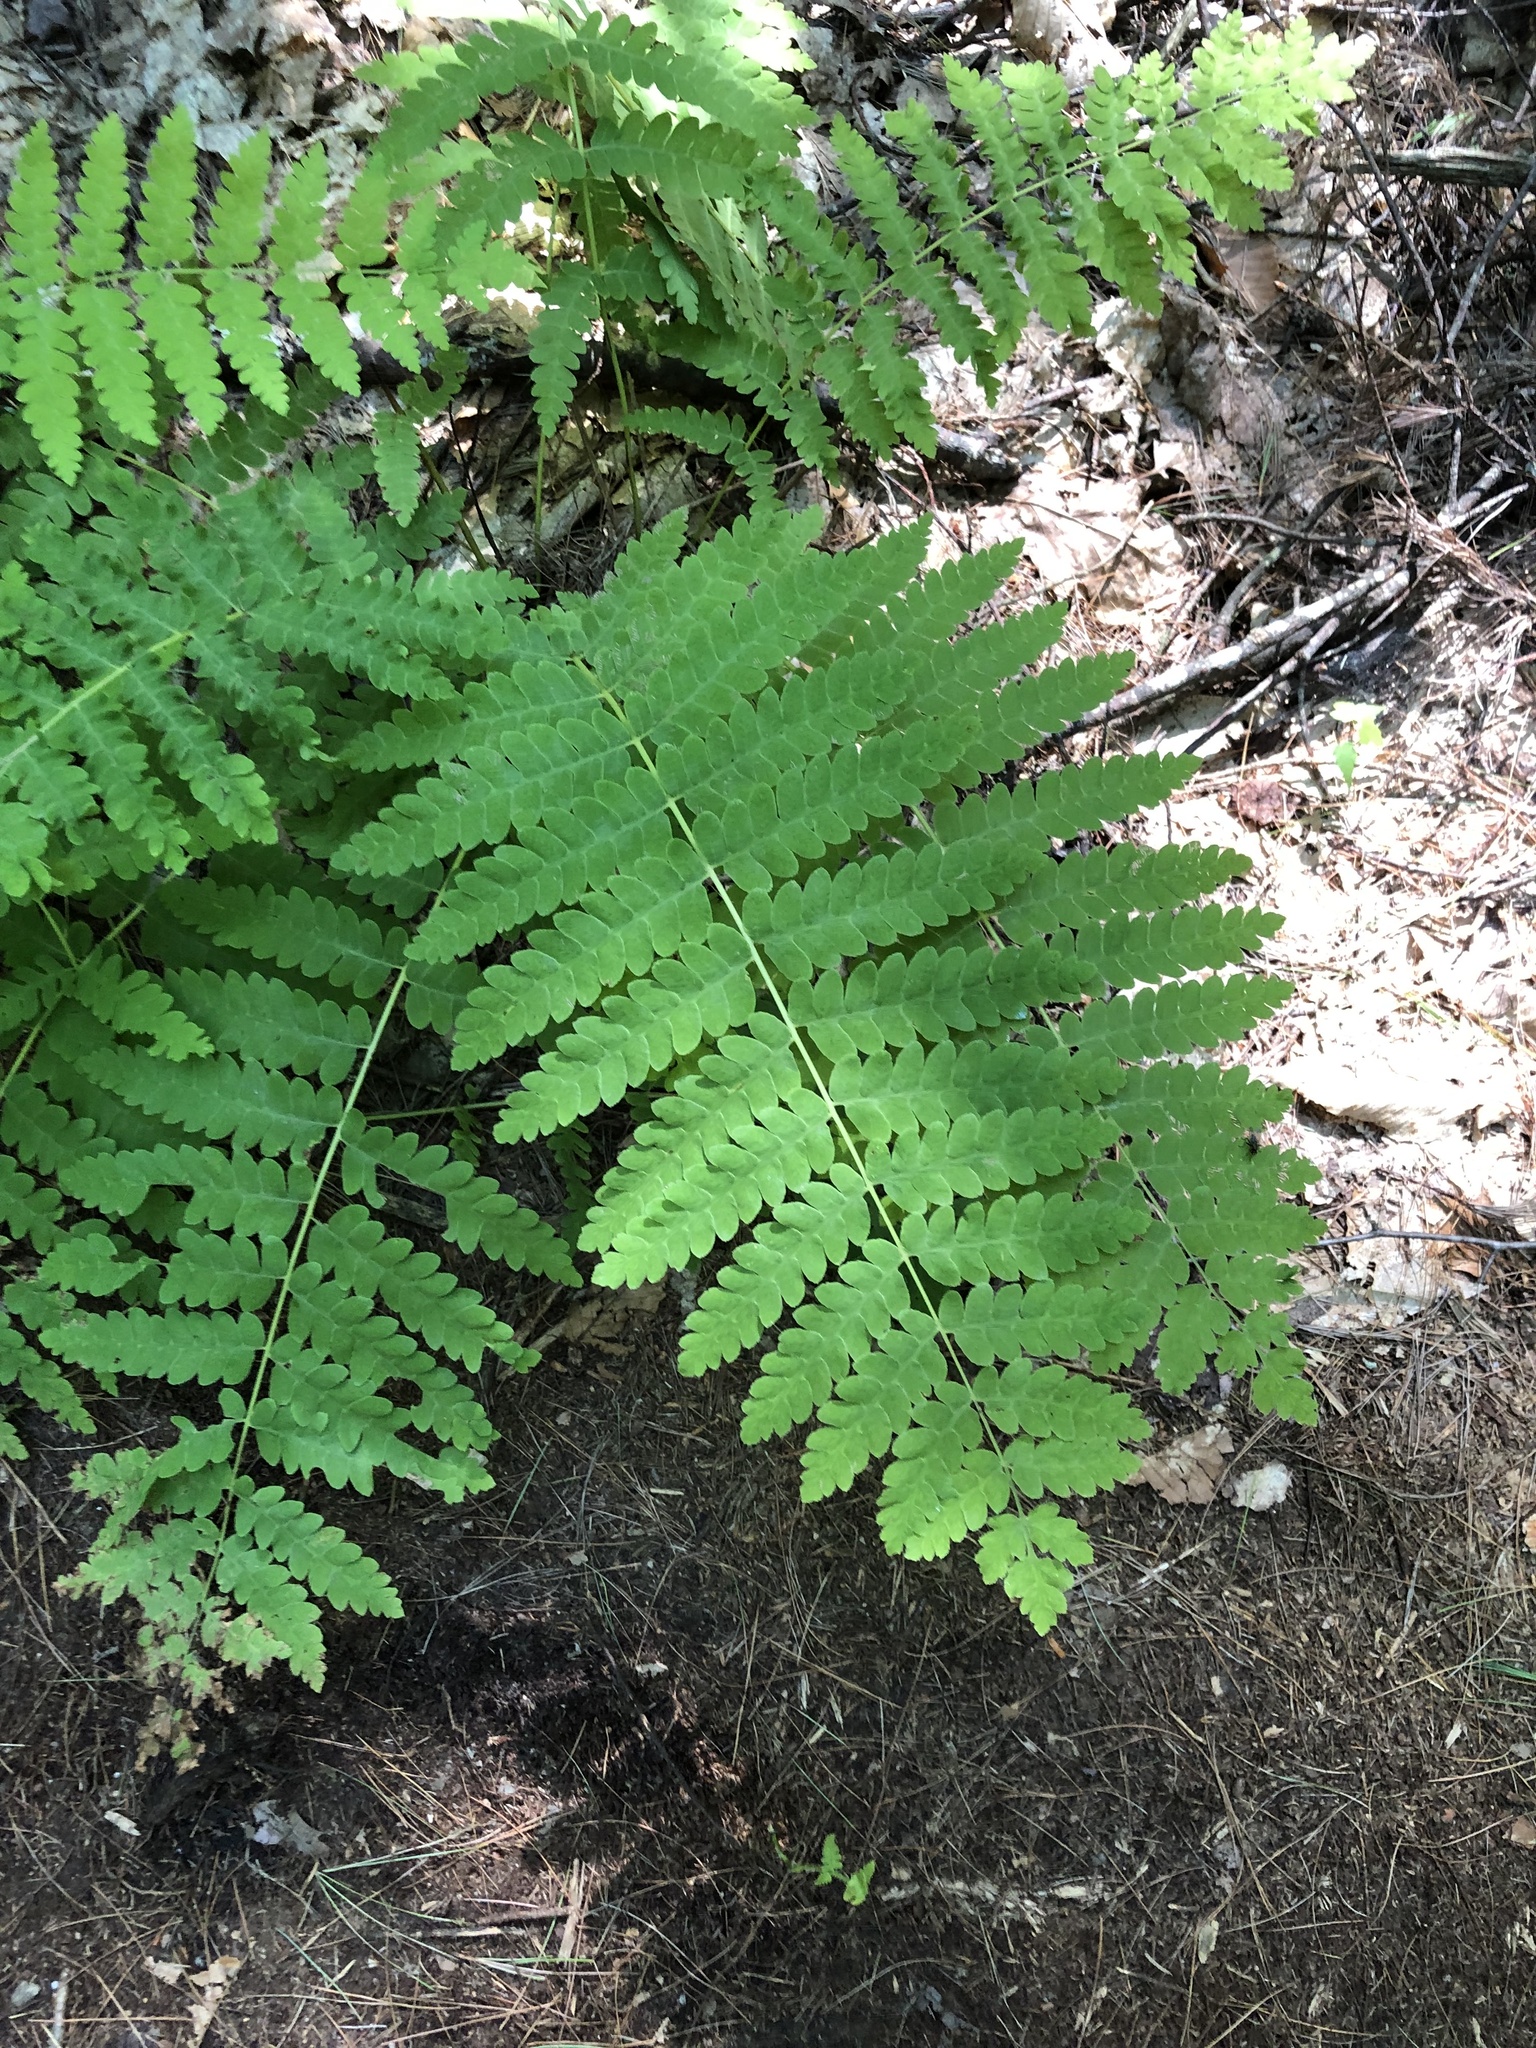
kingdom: Plantae
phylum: Tracheophyta
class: Polypodiopsida
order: Osmundales
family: Osmundaceae
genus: Claytosmunda
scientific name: Claytosmunda claytoniana
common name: Clayton's fern
